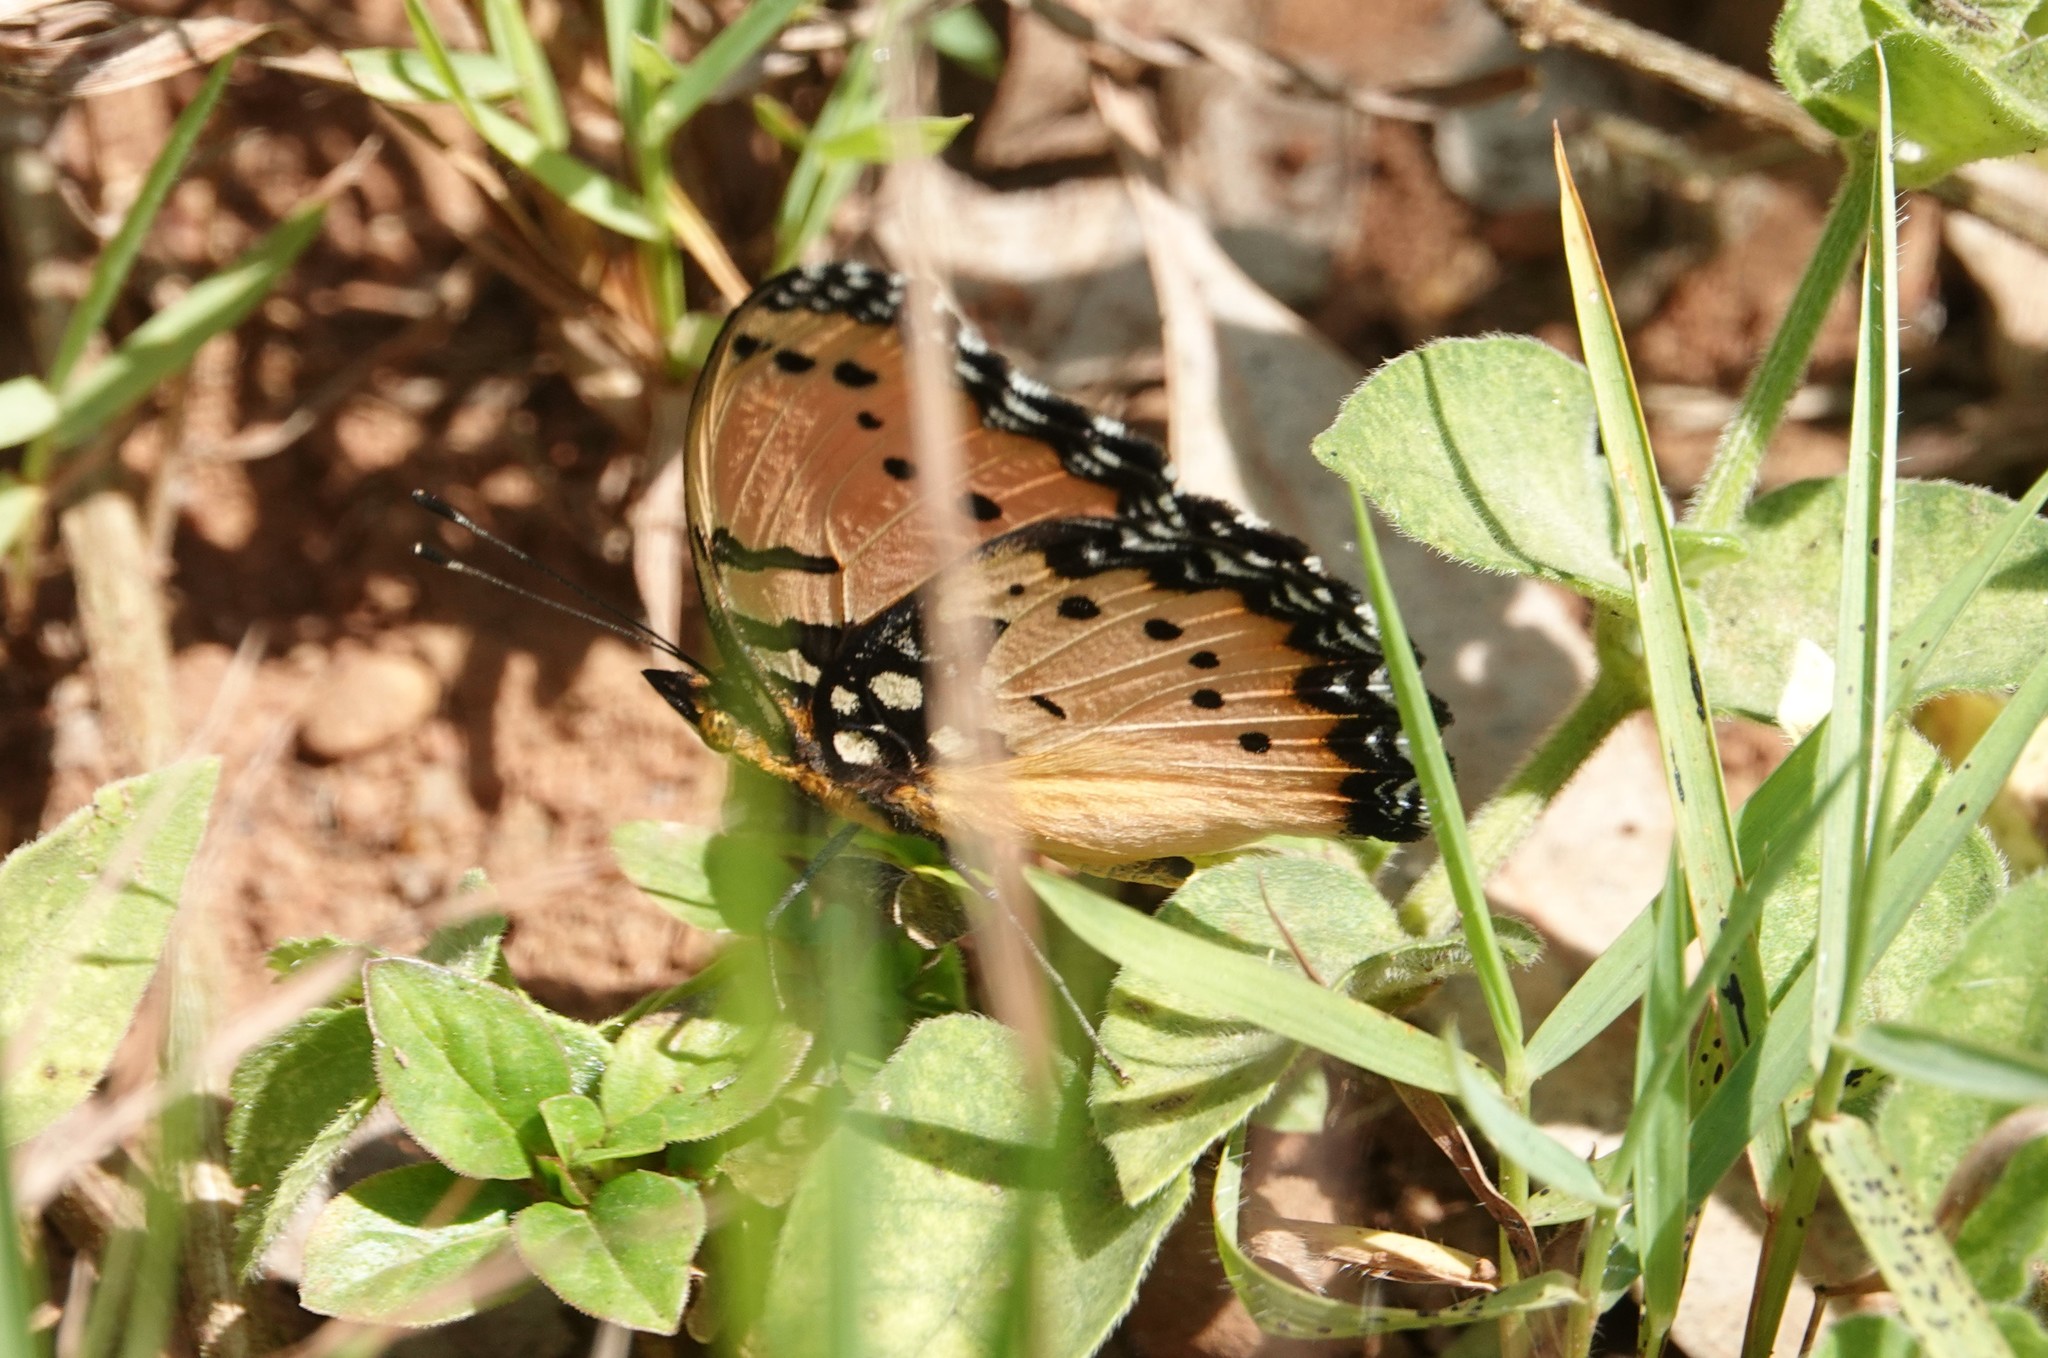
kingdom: Animalia
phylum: Arthropoda
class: Insecta
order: Lepidoptera
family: Nymphalidae
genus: Precis
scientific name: Precis octavia
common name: Gaudy commodore
